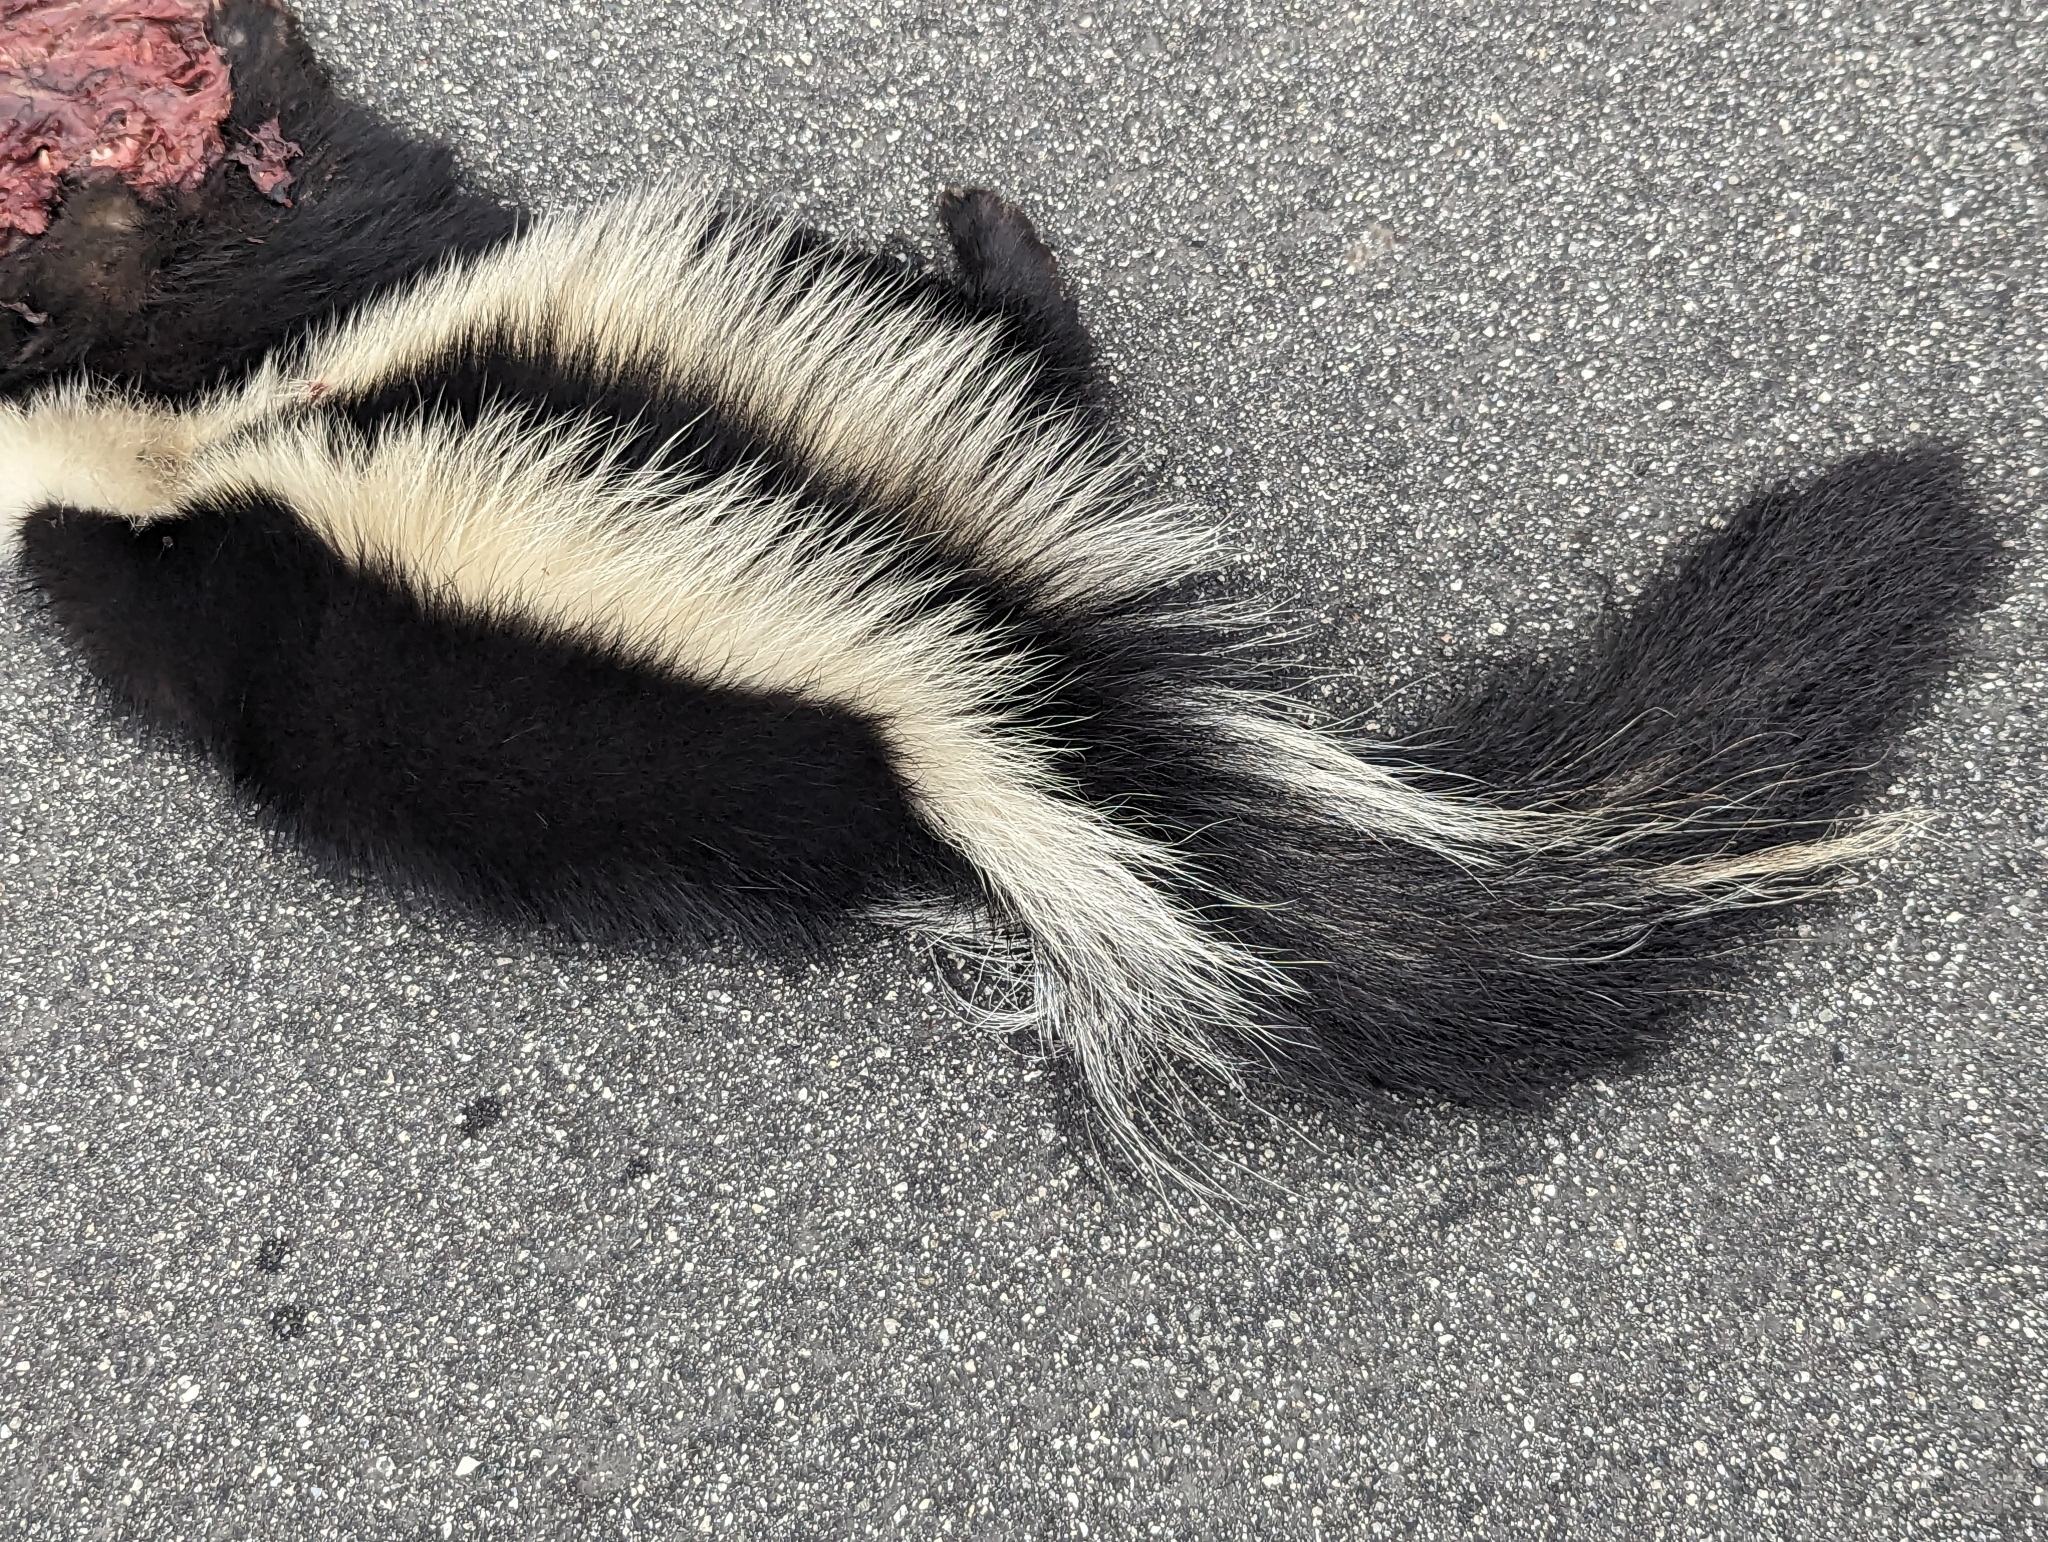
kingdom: Animalia
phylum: Chordata
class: Mammalia
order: Carnivora
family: Mephitidae
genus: Mephitis
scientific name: Mephitis mephitis
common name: Striped skunk
